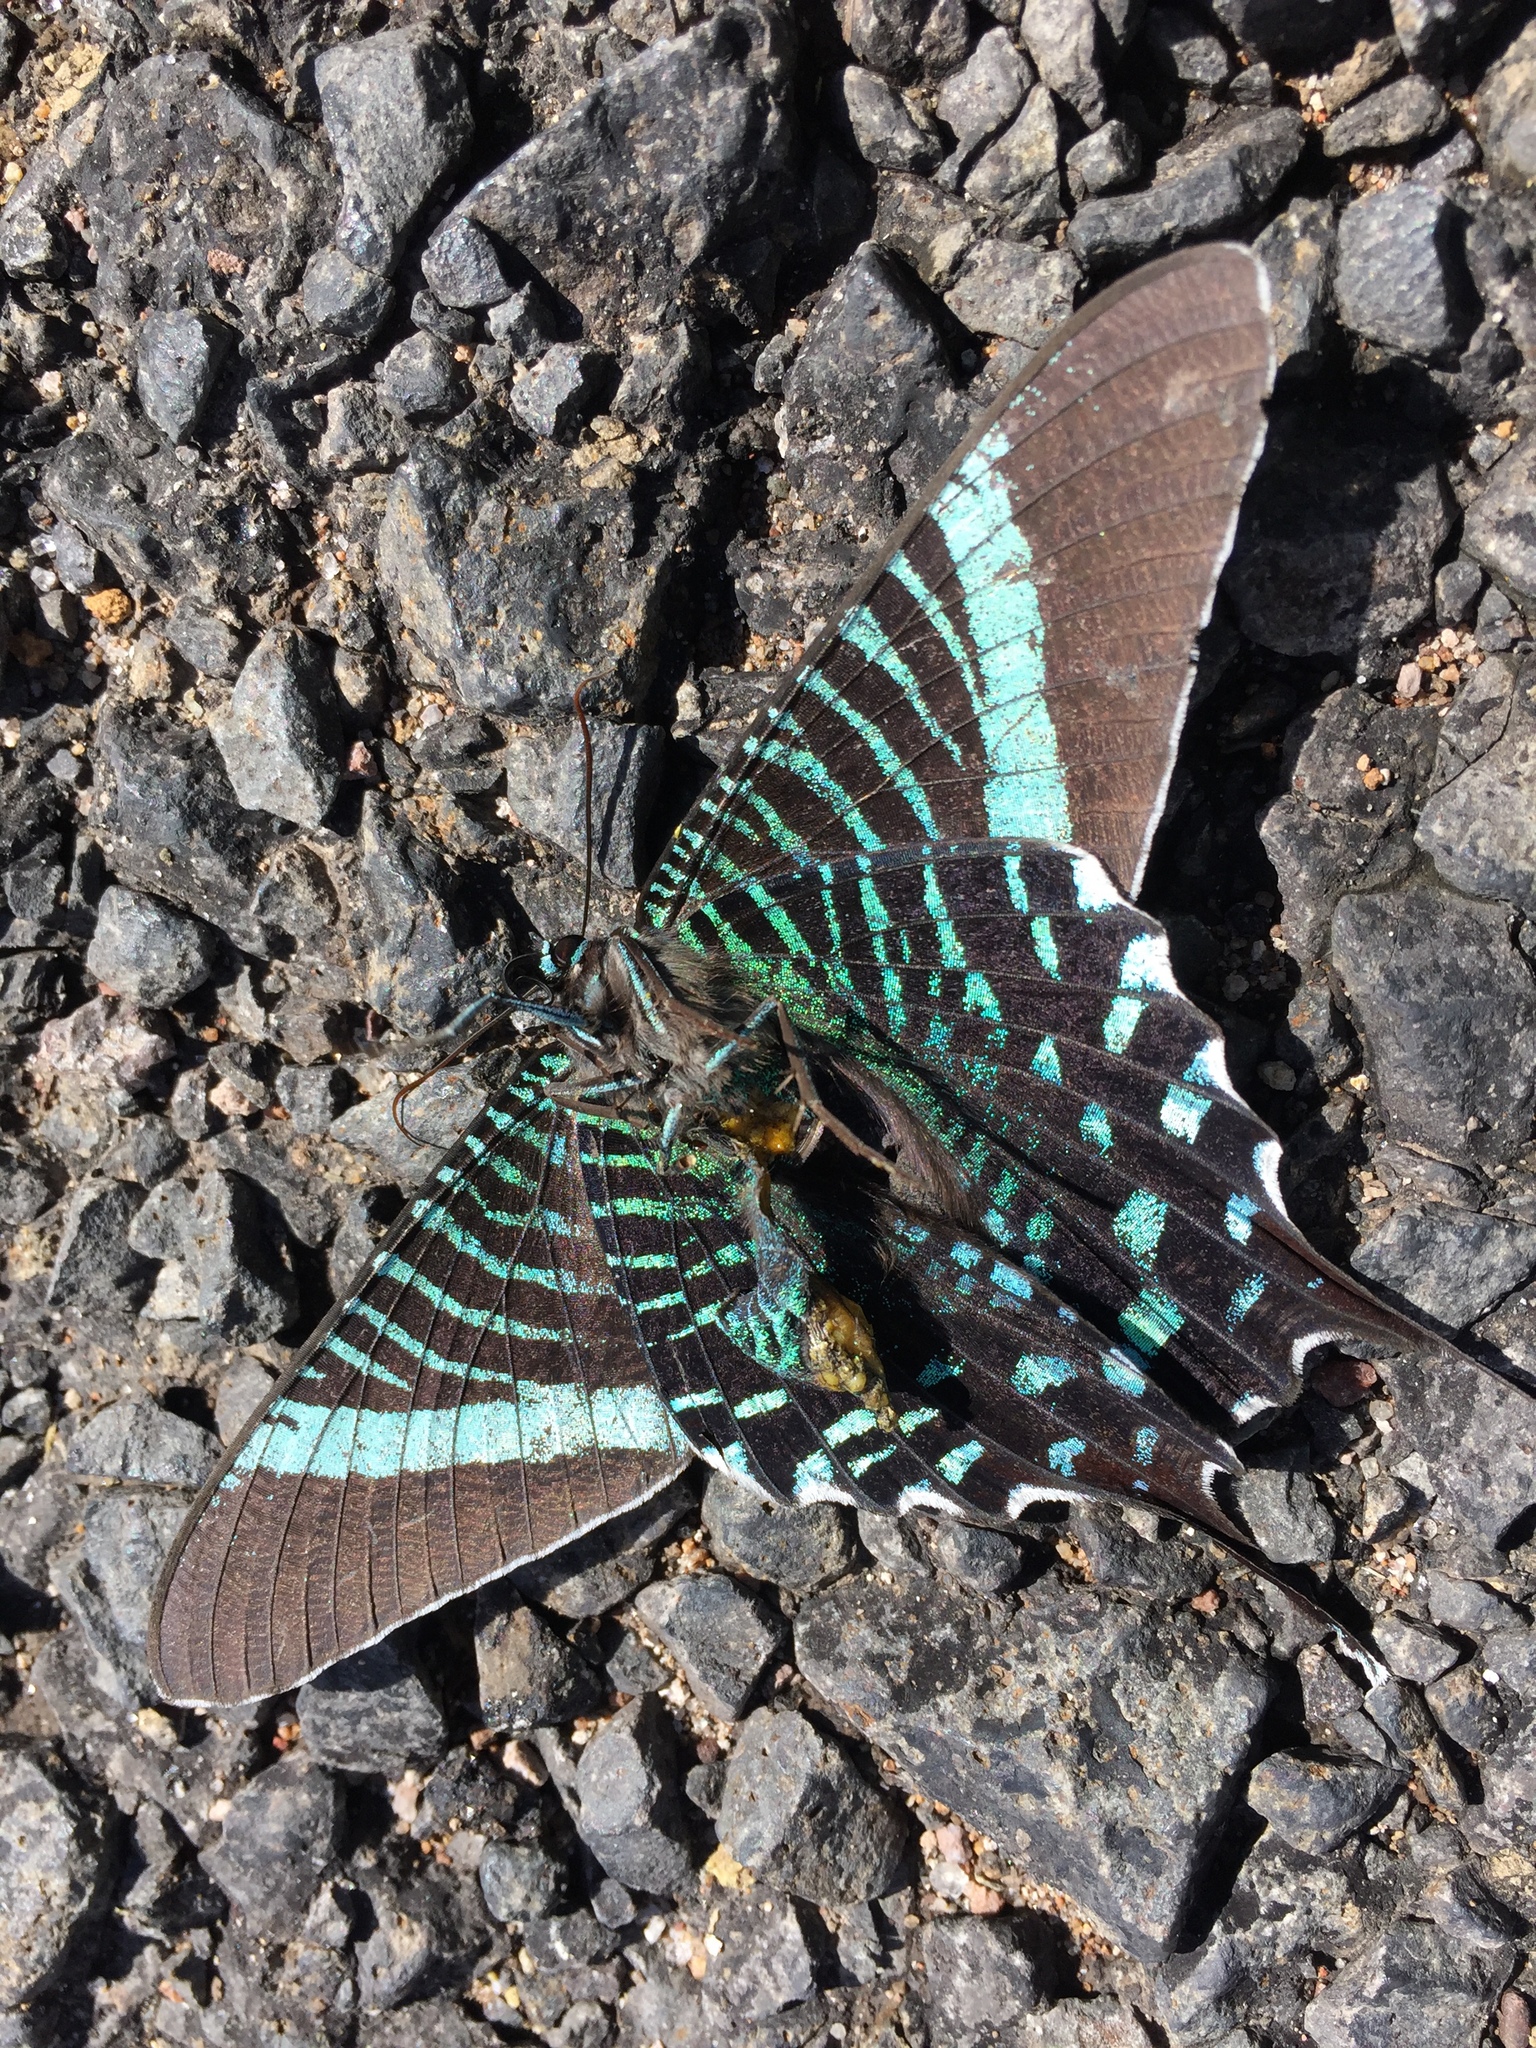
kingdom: Animalia
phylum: Arthropoda
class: Insecta
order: Lepidoptera
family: Uraniidae
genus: Urania
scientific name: Urania fulgens
